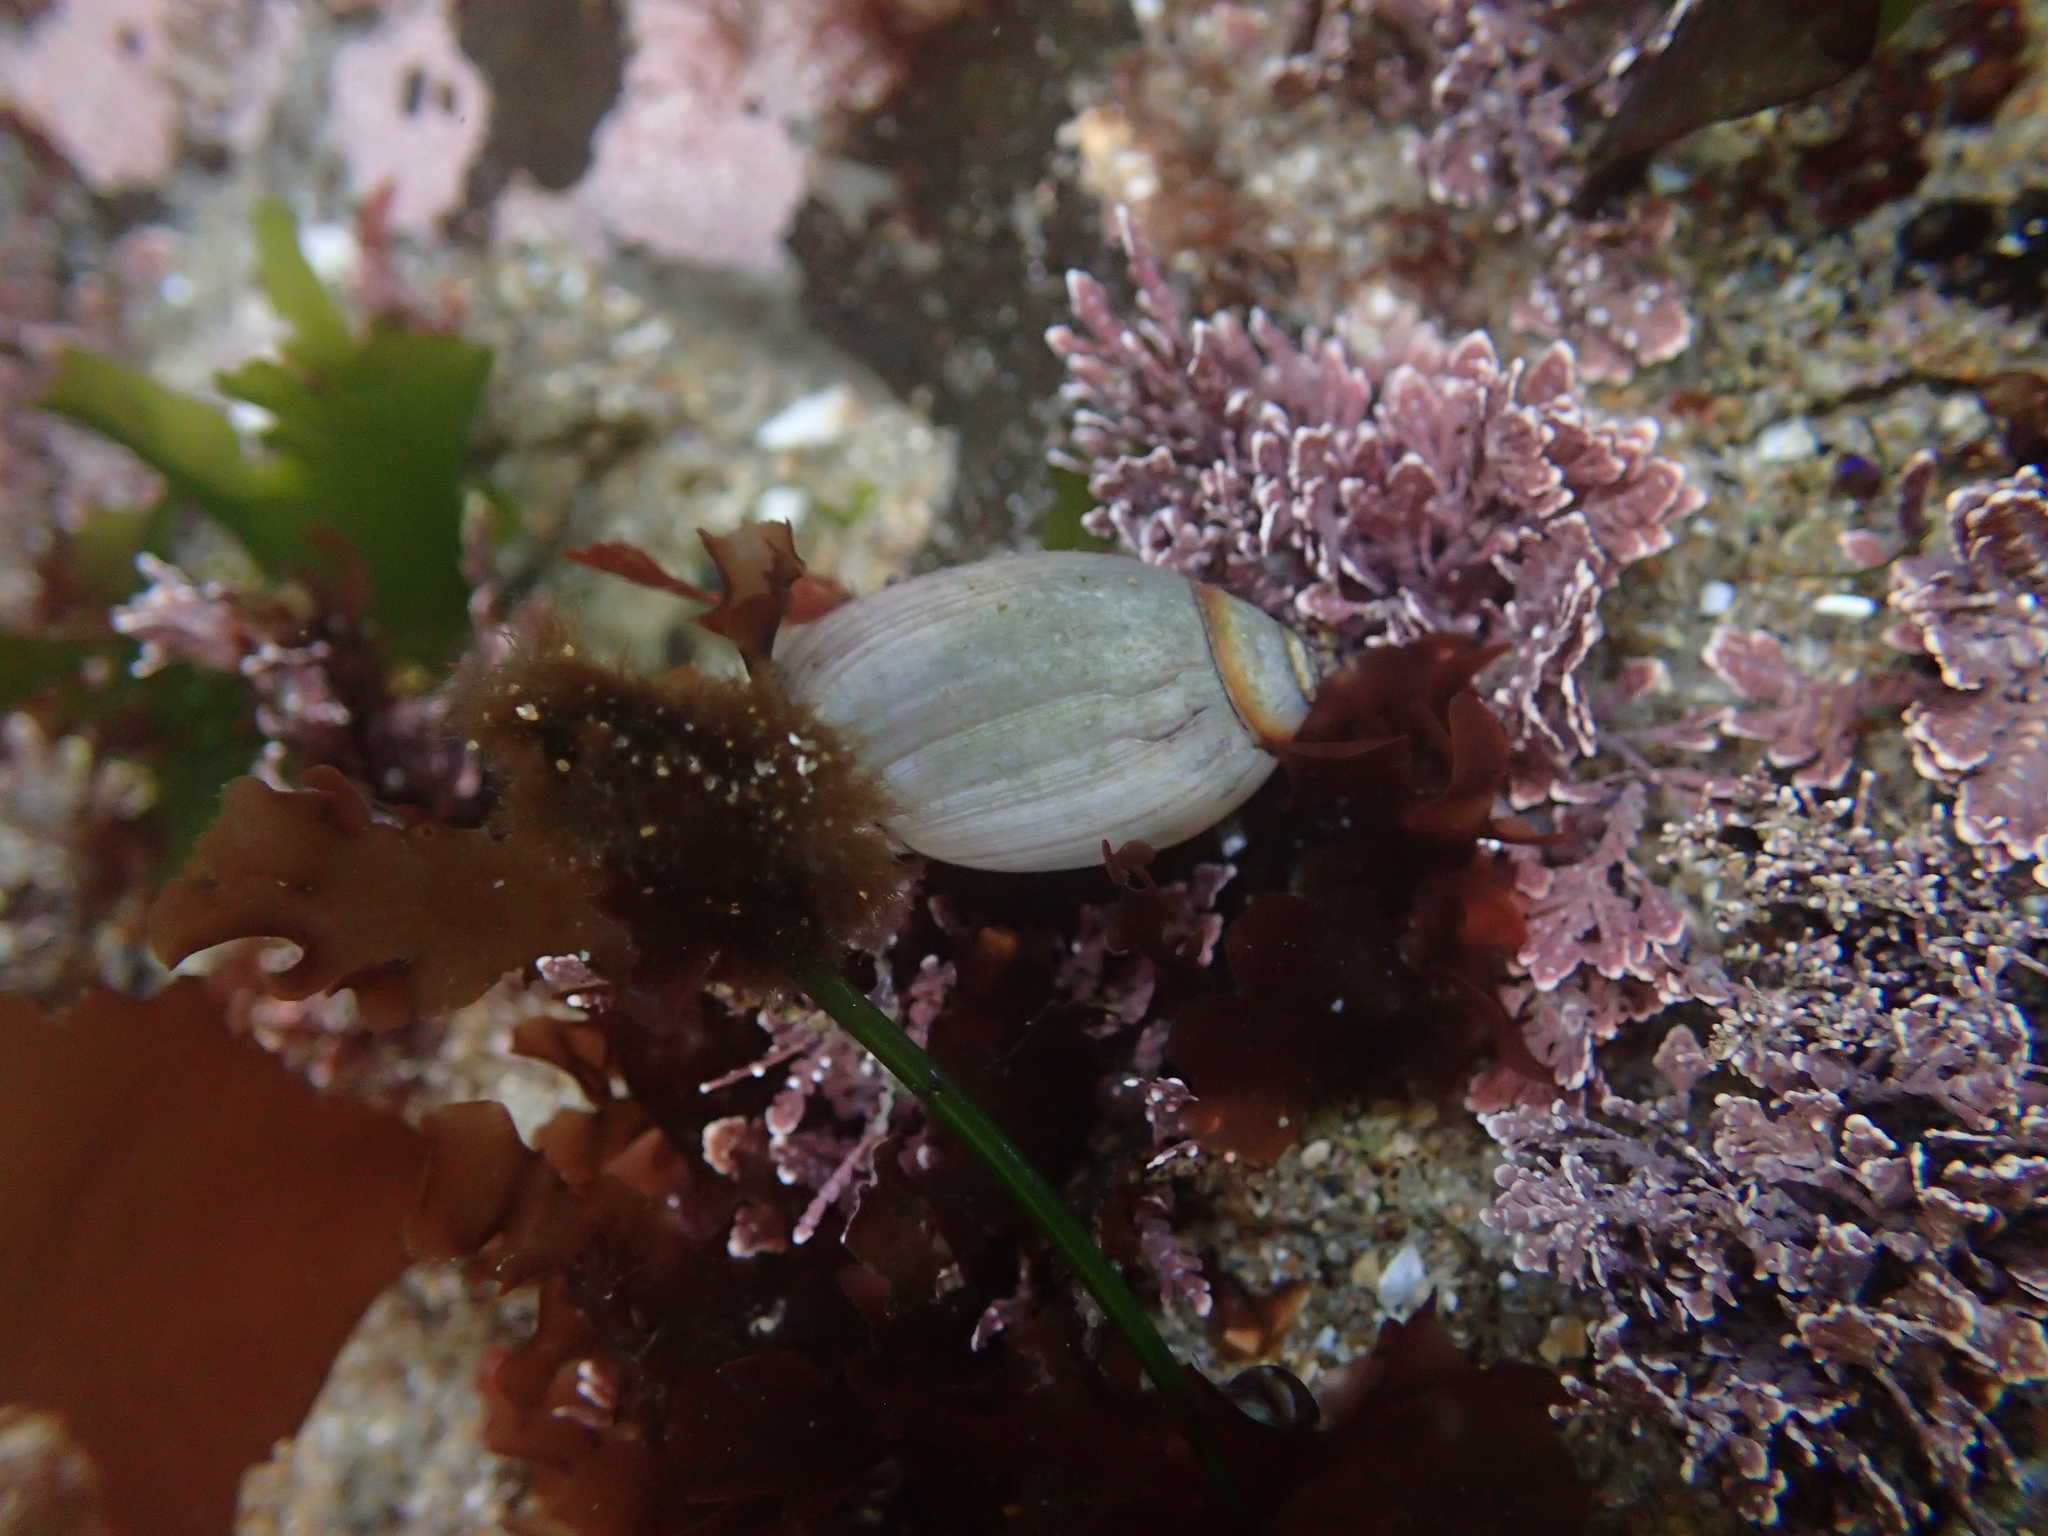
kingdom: Animalia
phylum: Mollusca
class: Gastropoda
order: Neogastropoda
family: Olividae
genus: Callianax
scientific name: Callianax biplicata
